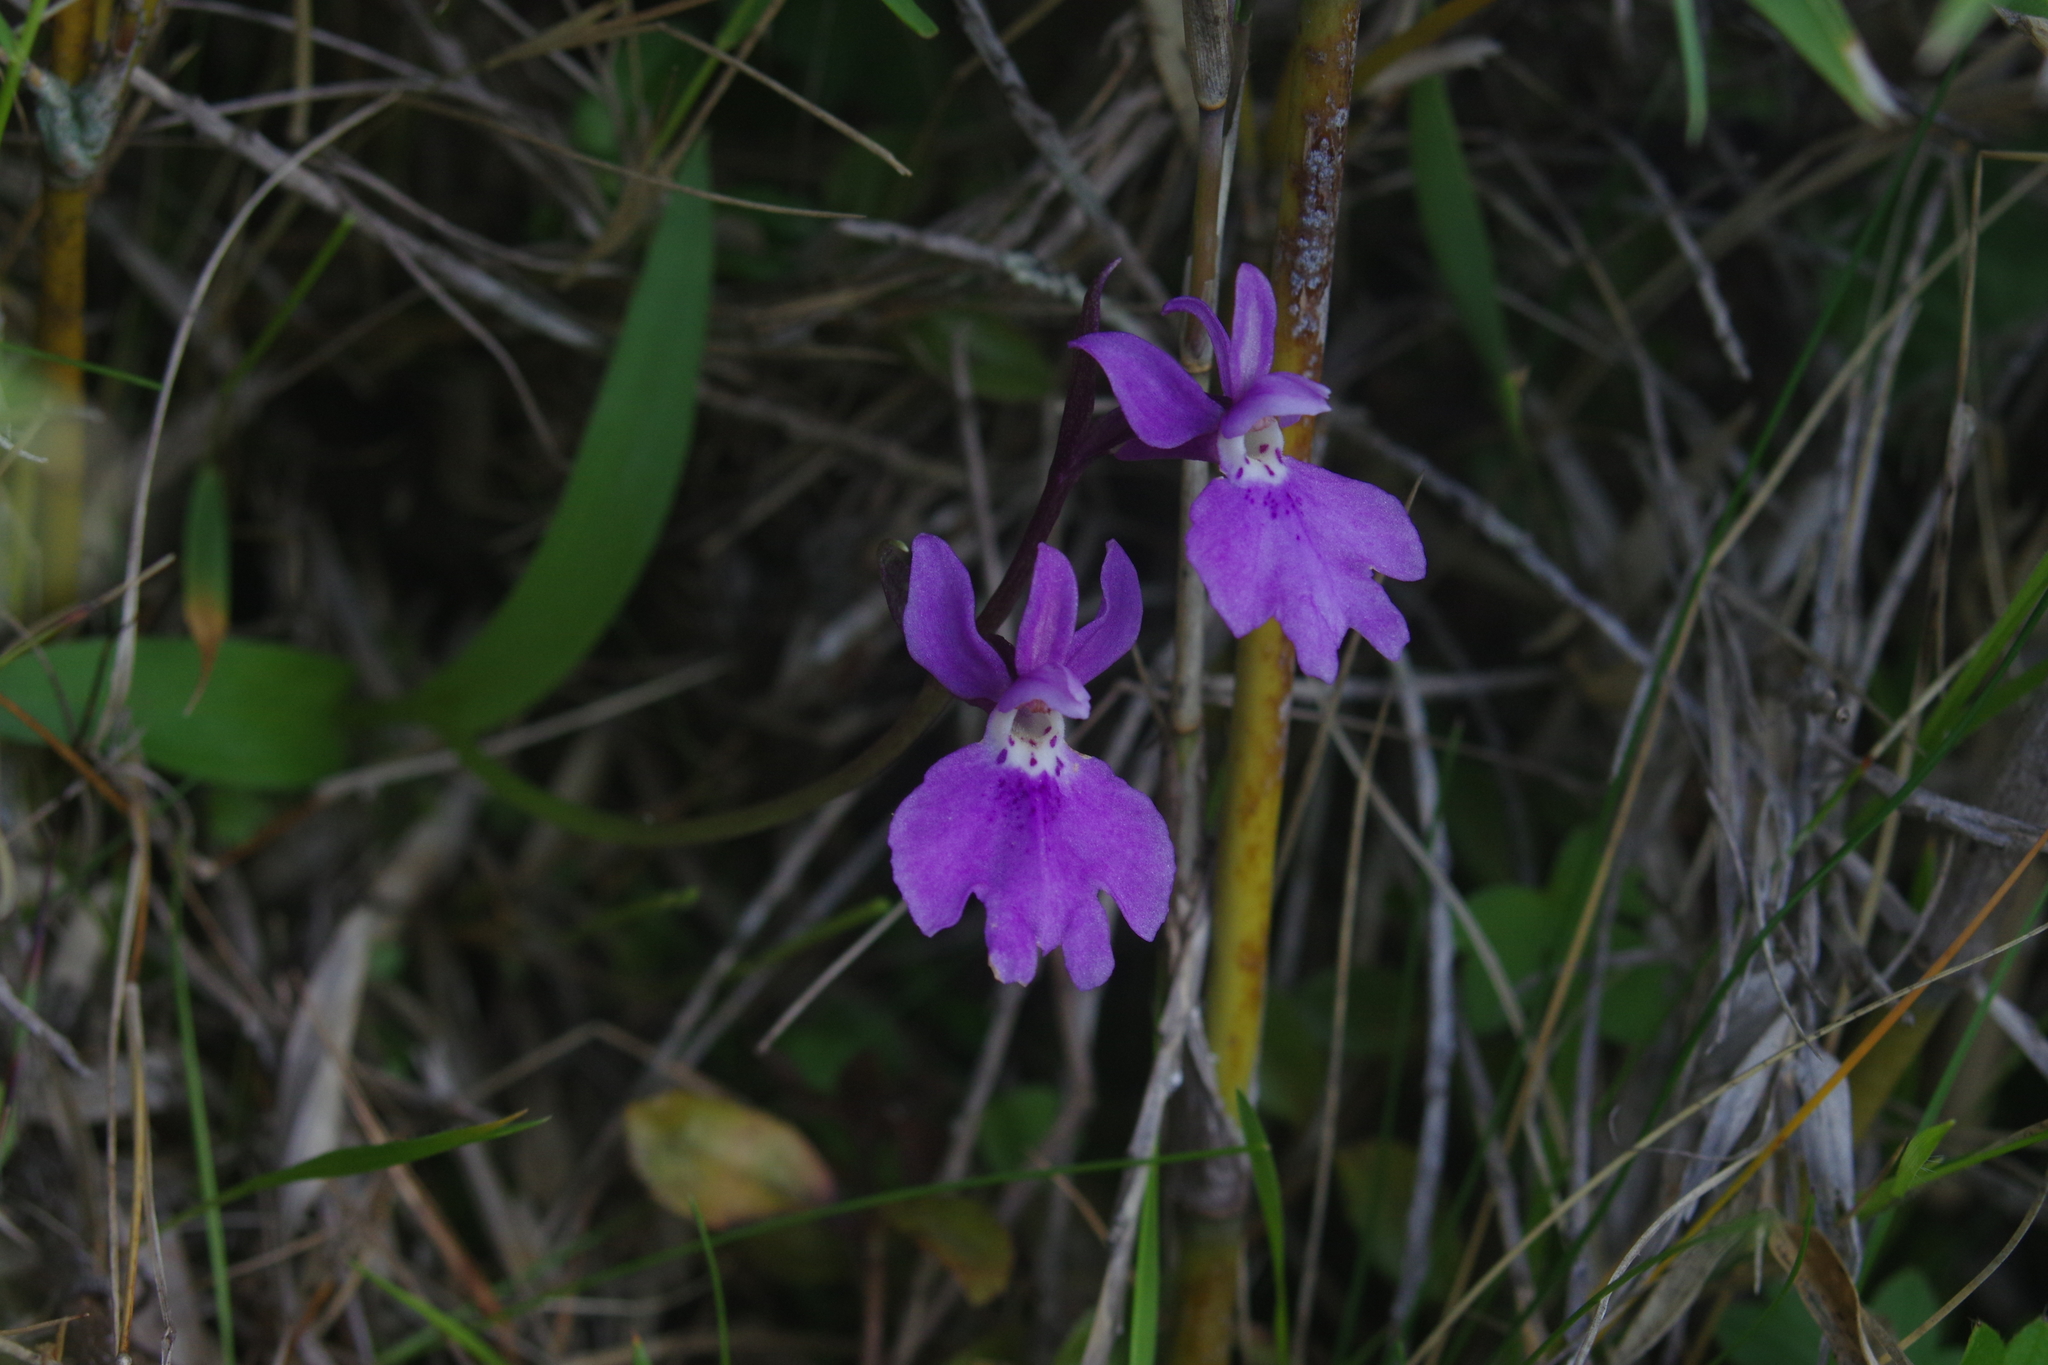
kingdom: Plantae
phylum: Tracheophyta
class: Liliopsida
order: Asparagales
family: Orchidaceae
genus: Hemipilia
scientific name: Hemipilia kiraishiensis
